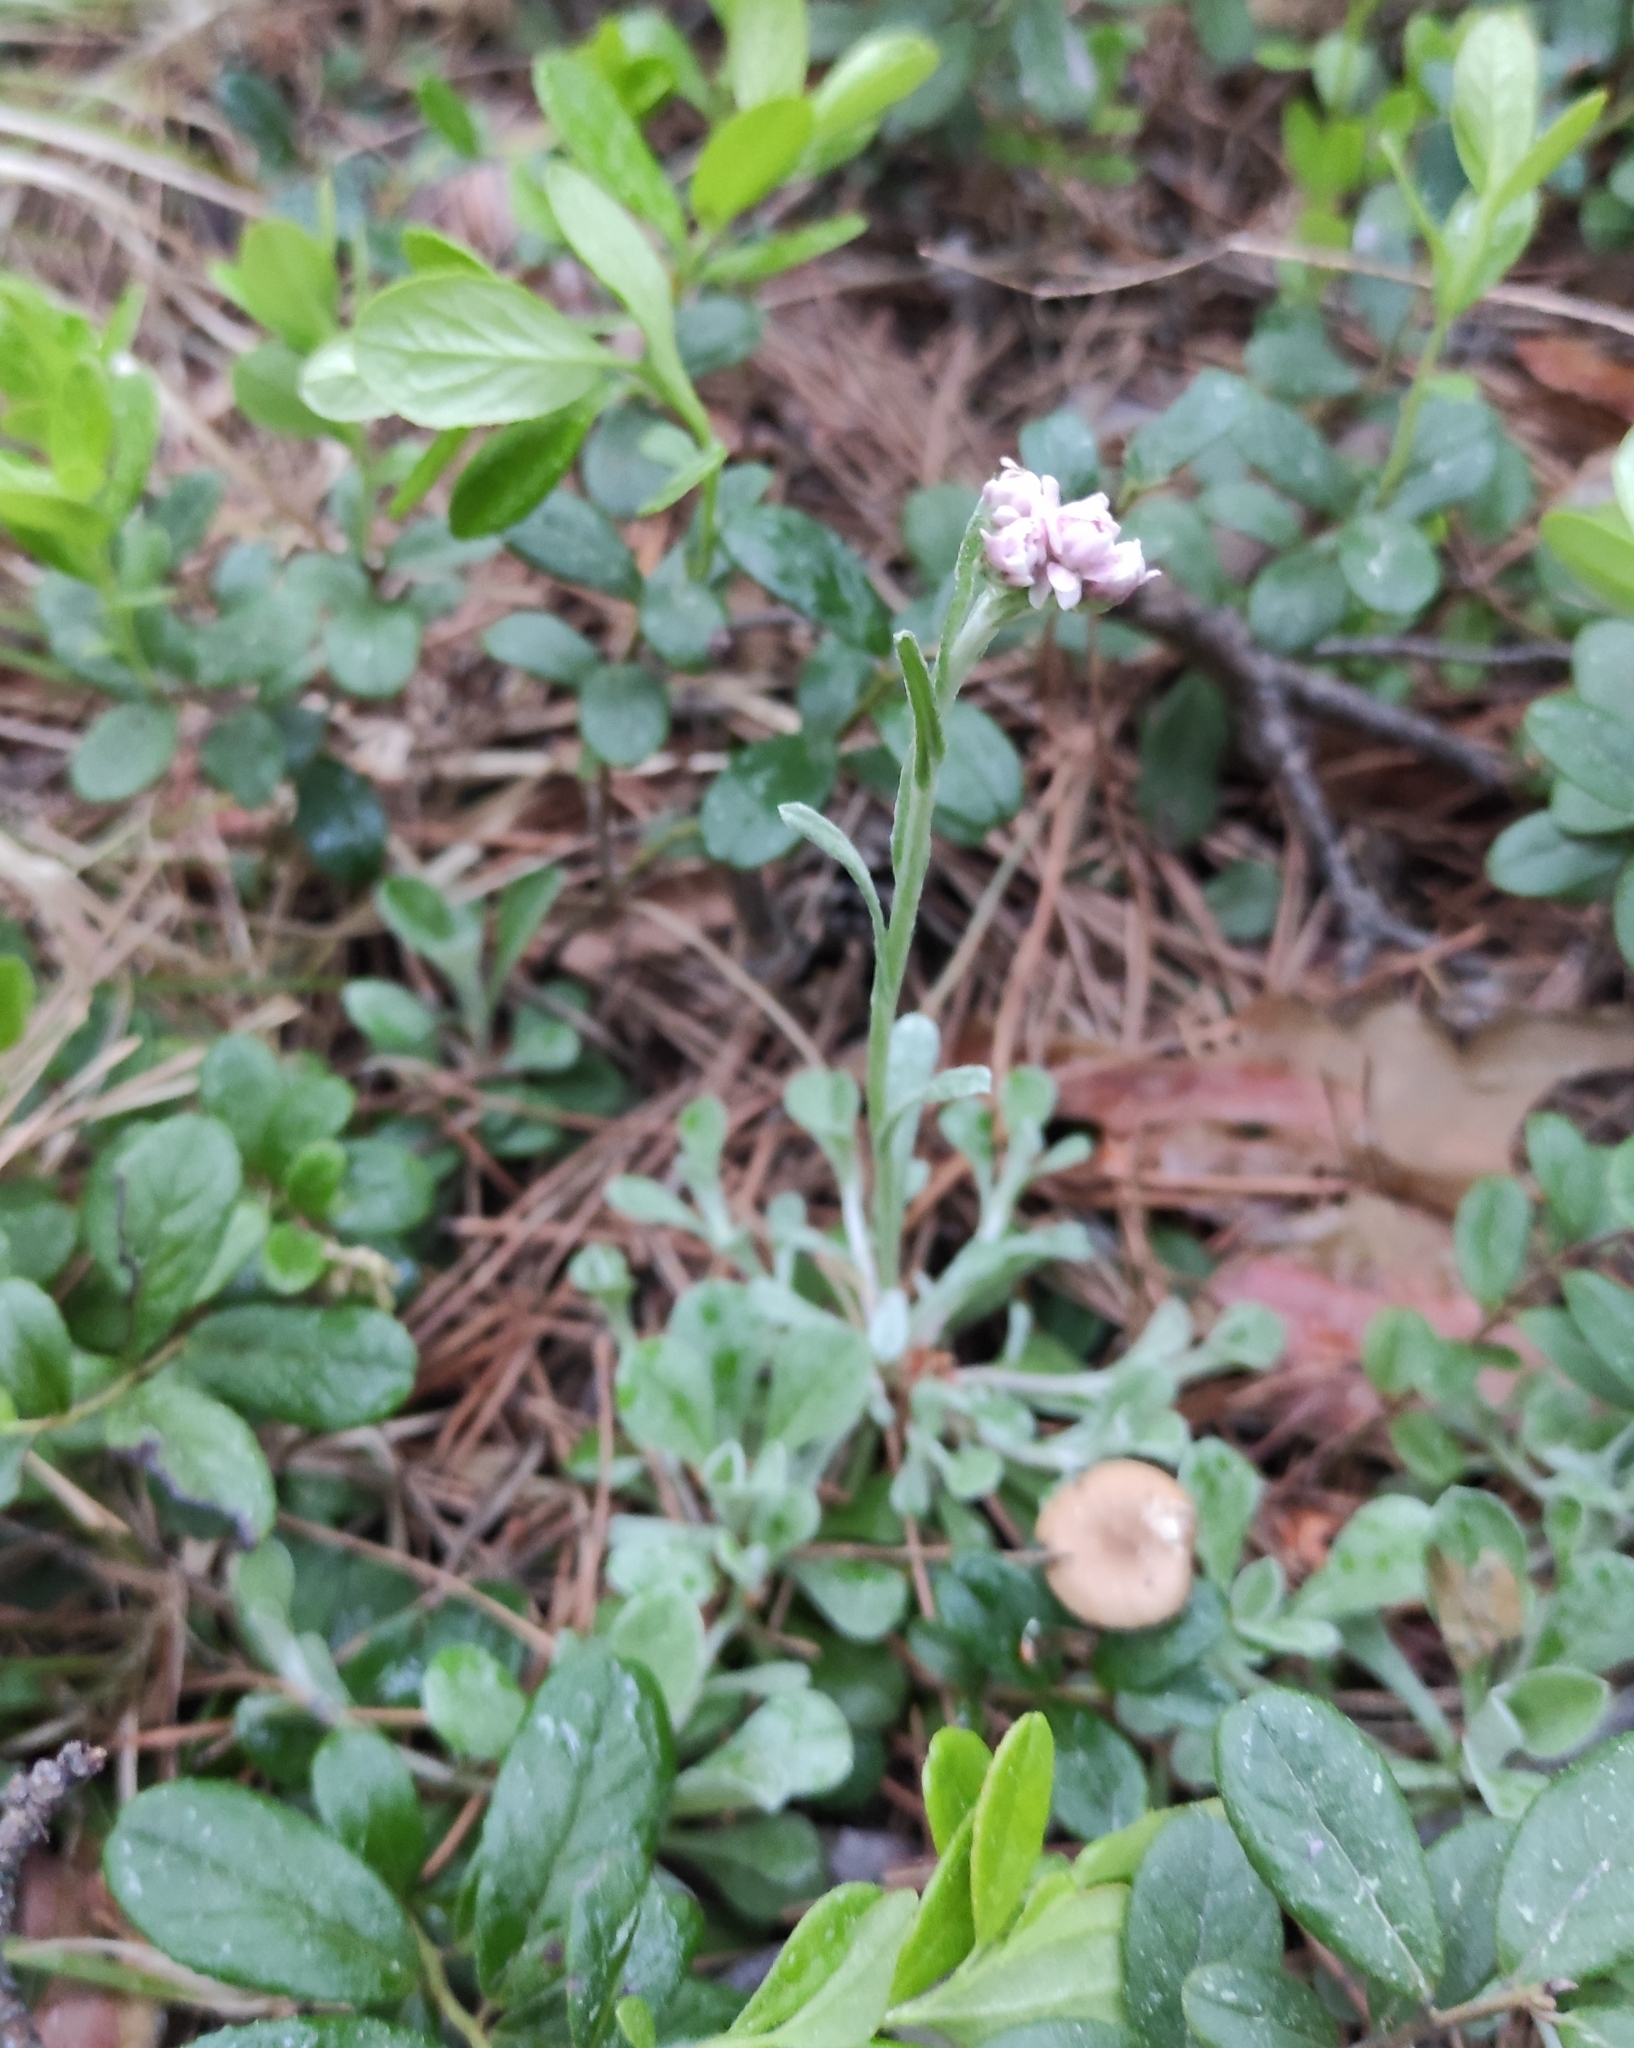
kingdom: Plantae
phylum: Tracheophyta
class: Magnoliopsida
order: Asterales
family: Asteraceae
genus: Antennaria
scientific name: Antennaria dioica
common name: Mountain everlasting
